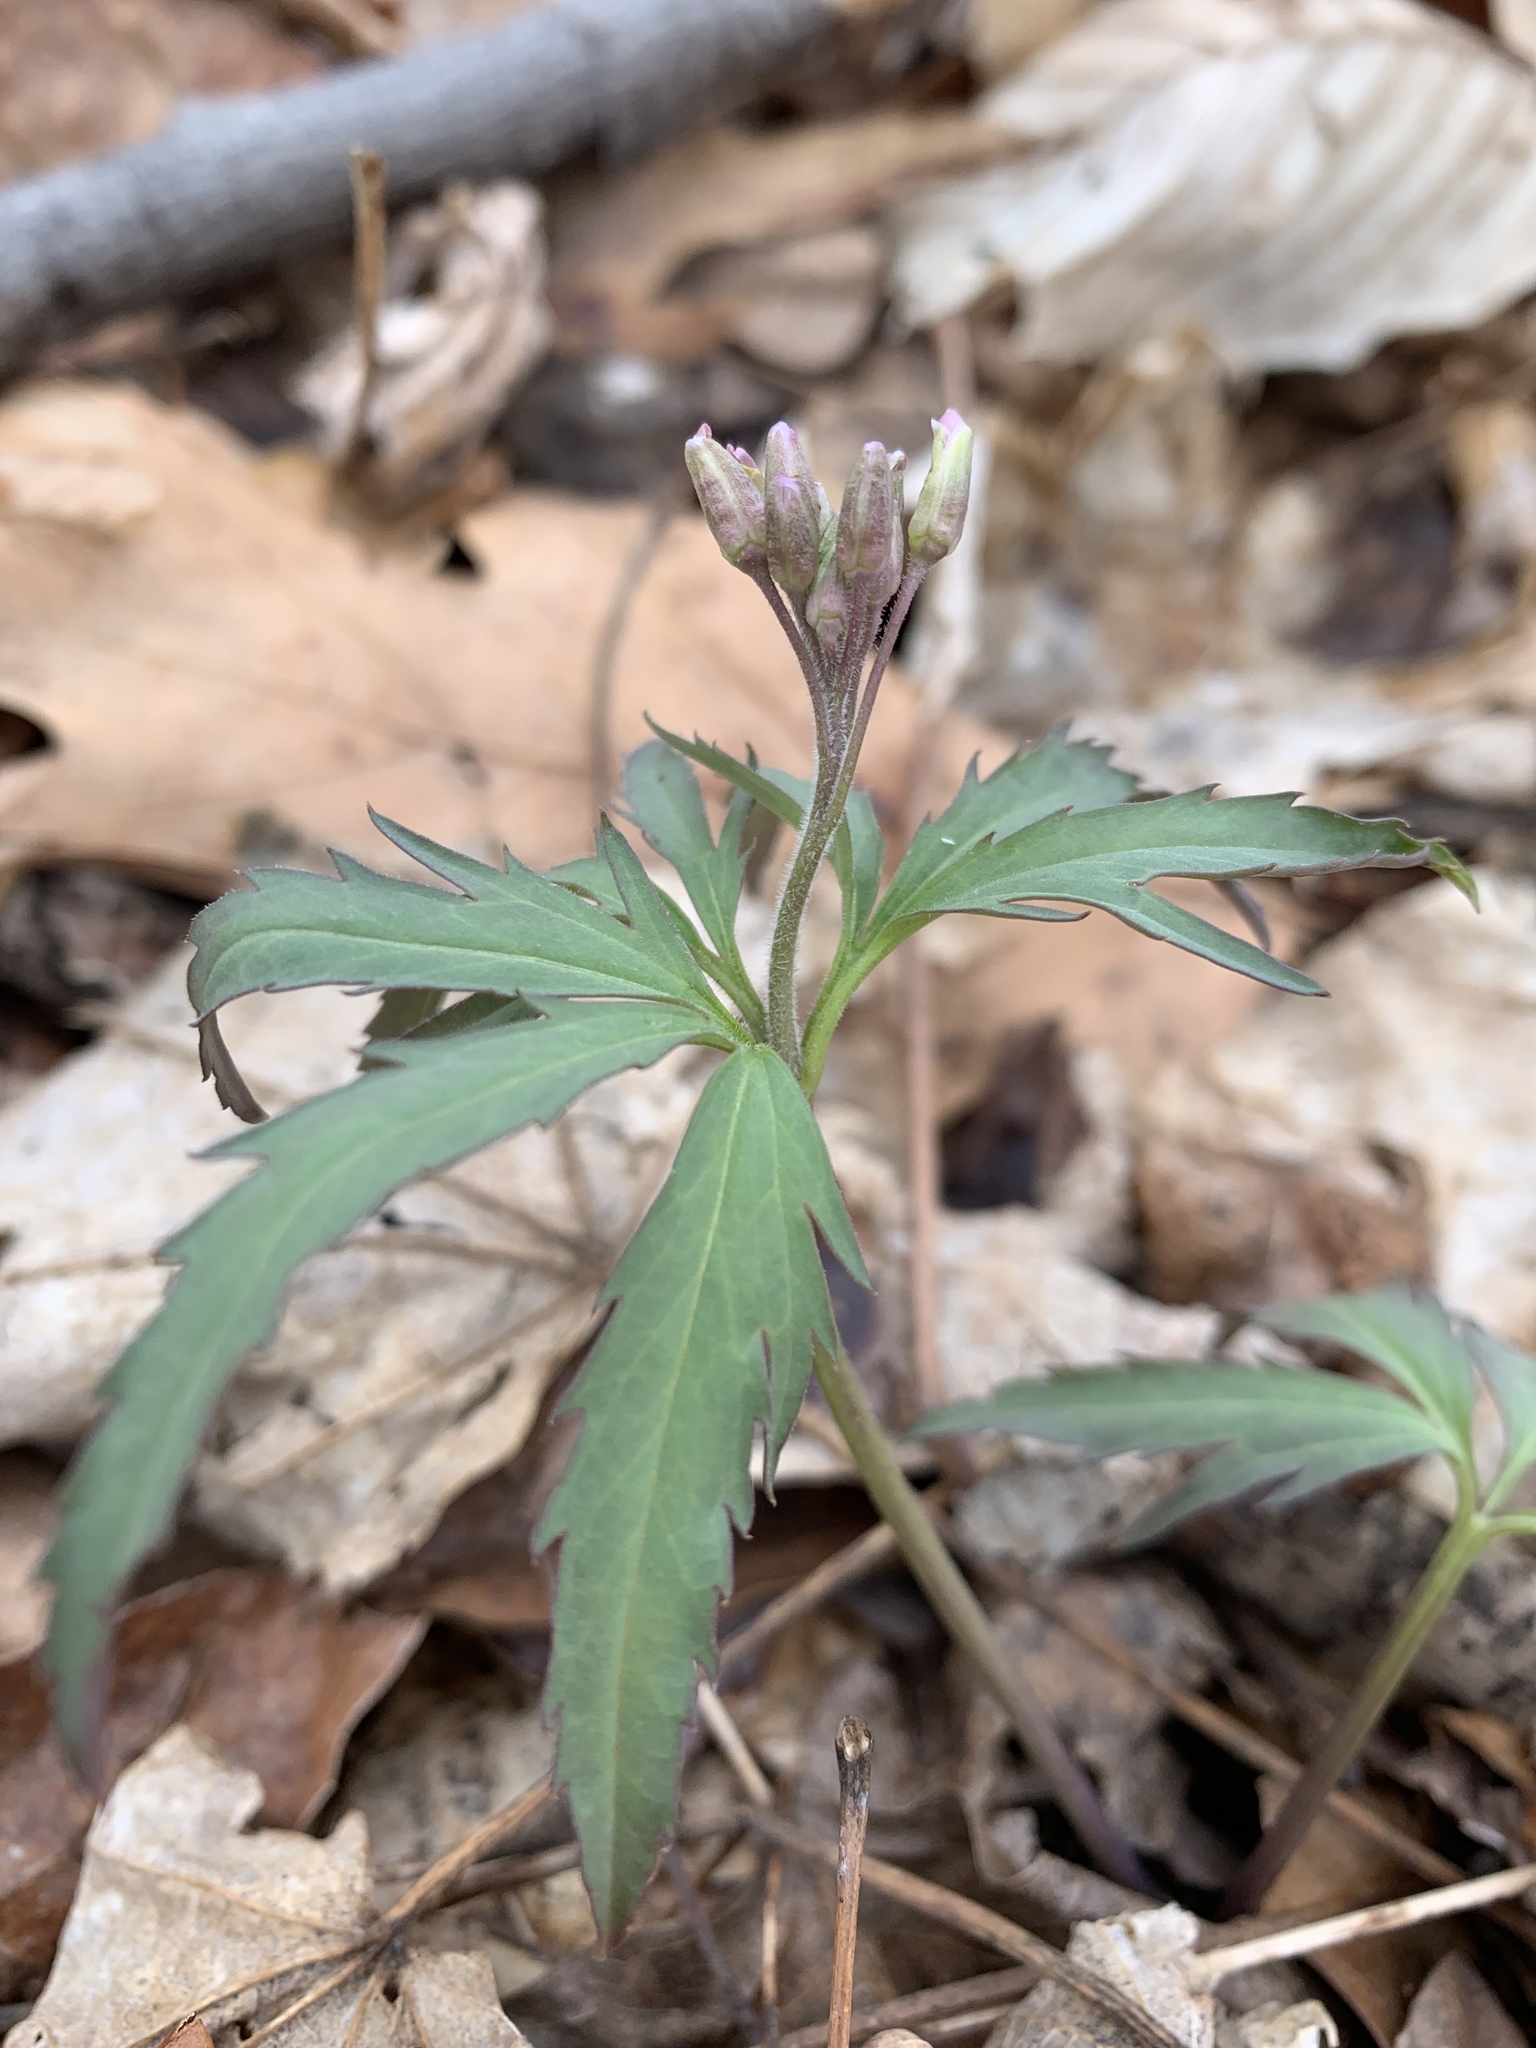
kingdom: Plantae
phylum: Tracheophyta
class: Magnoliopsida
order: Brassicales
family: Brassicaceae
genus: Cardamine
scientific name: Cardamine concatenata
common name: Cut-leaf toothcup
